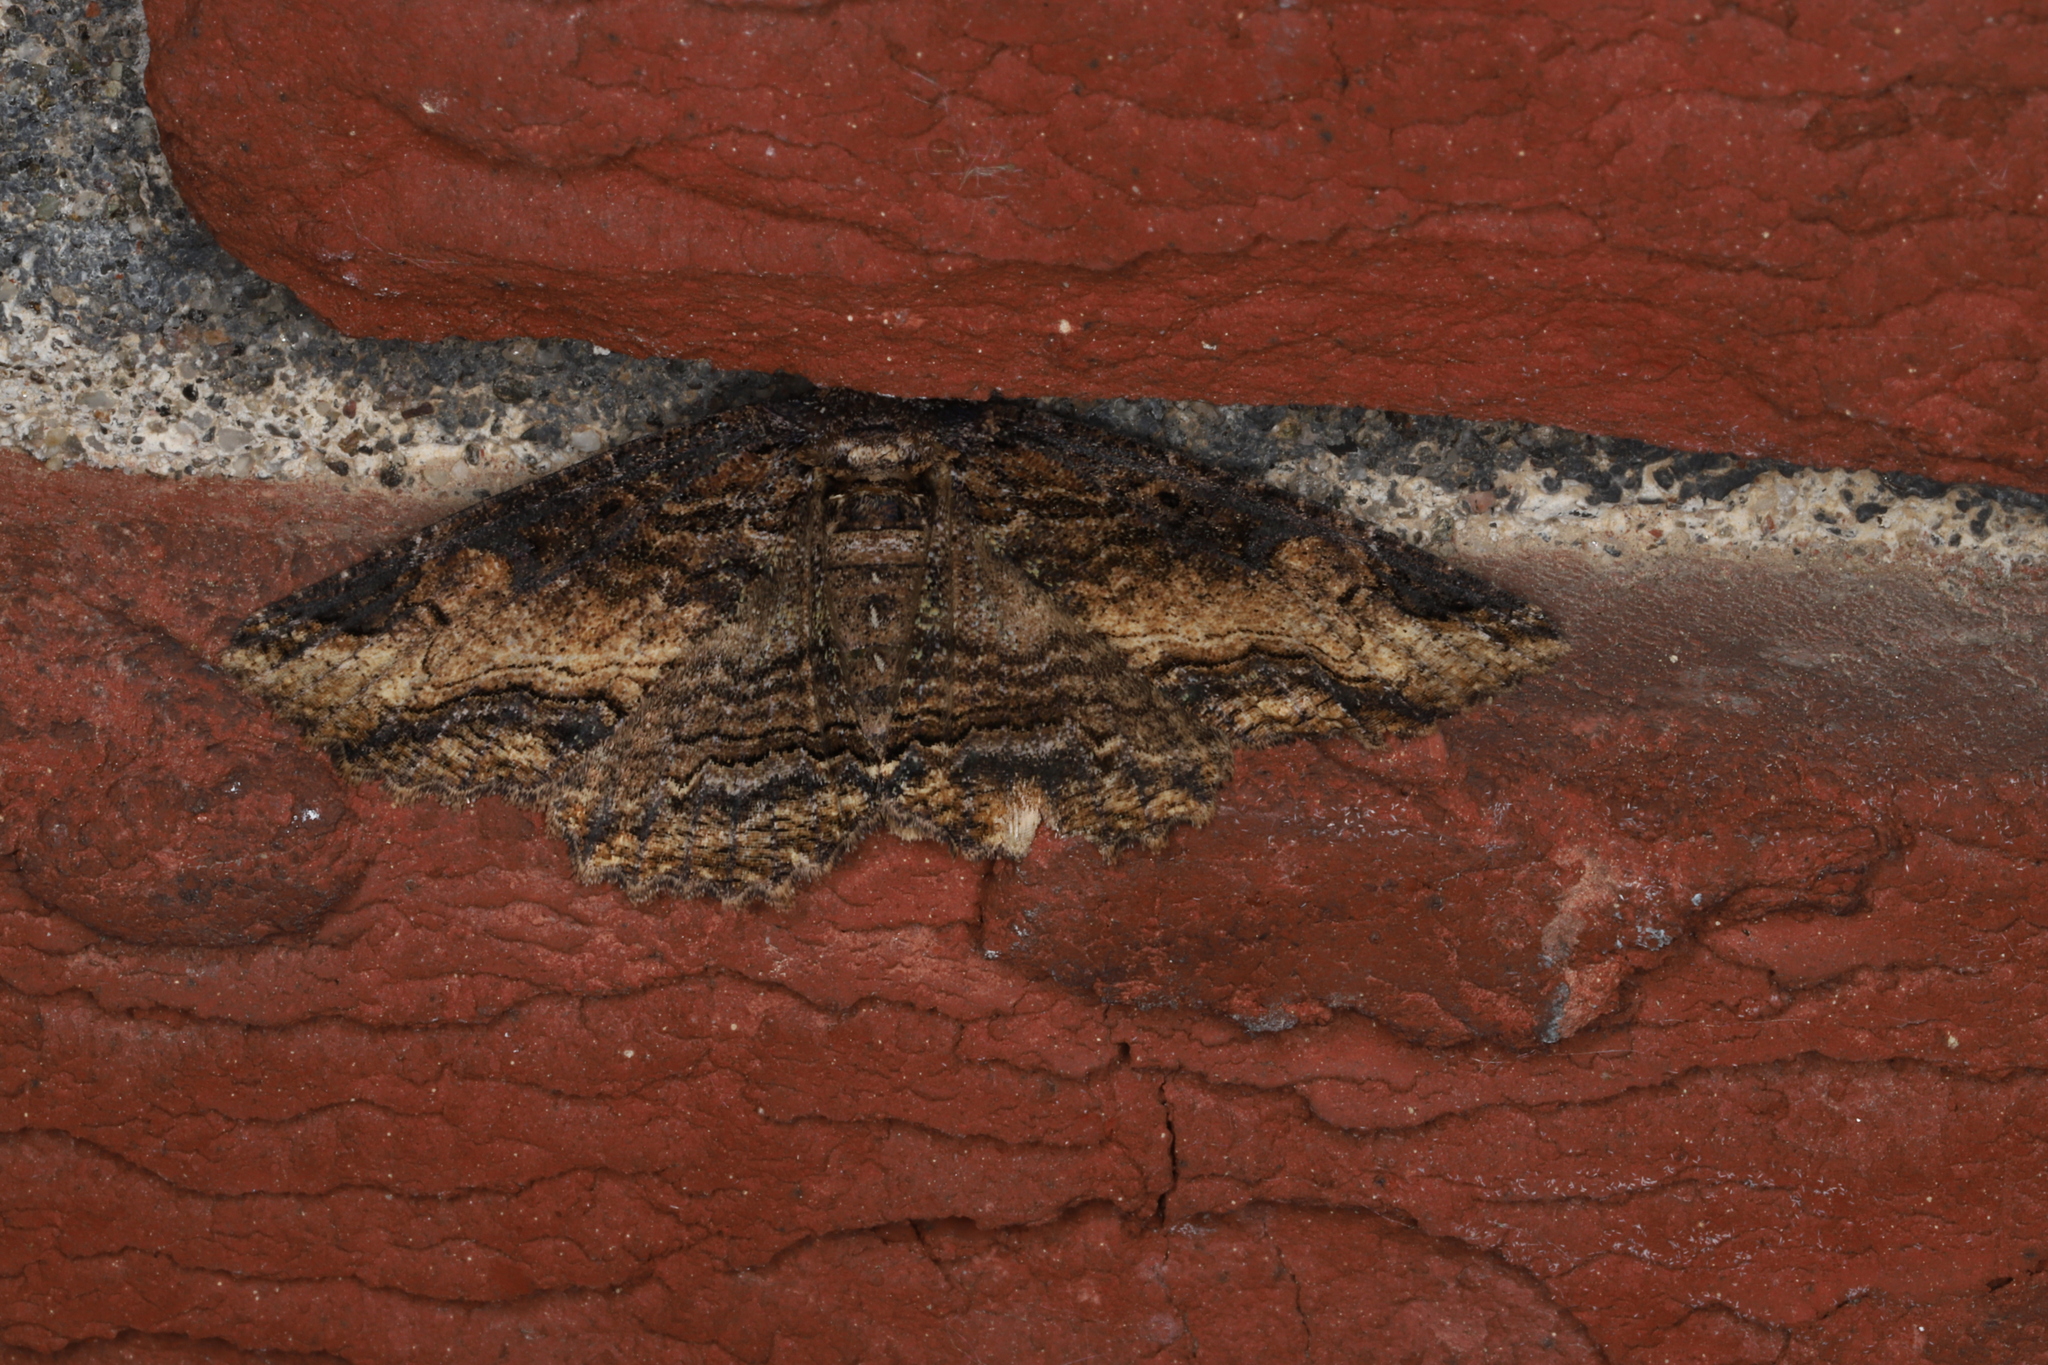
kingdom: Animalia
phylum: Arthropoda
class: Insecta
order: Lepidoptera
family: Erebidae
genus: Zale
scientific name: Zale minerea
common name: Colorful zale moth
